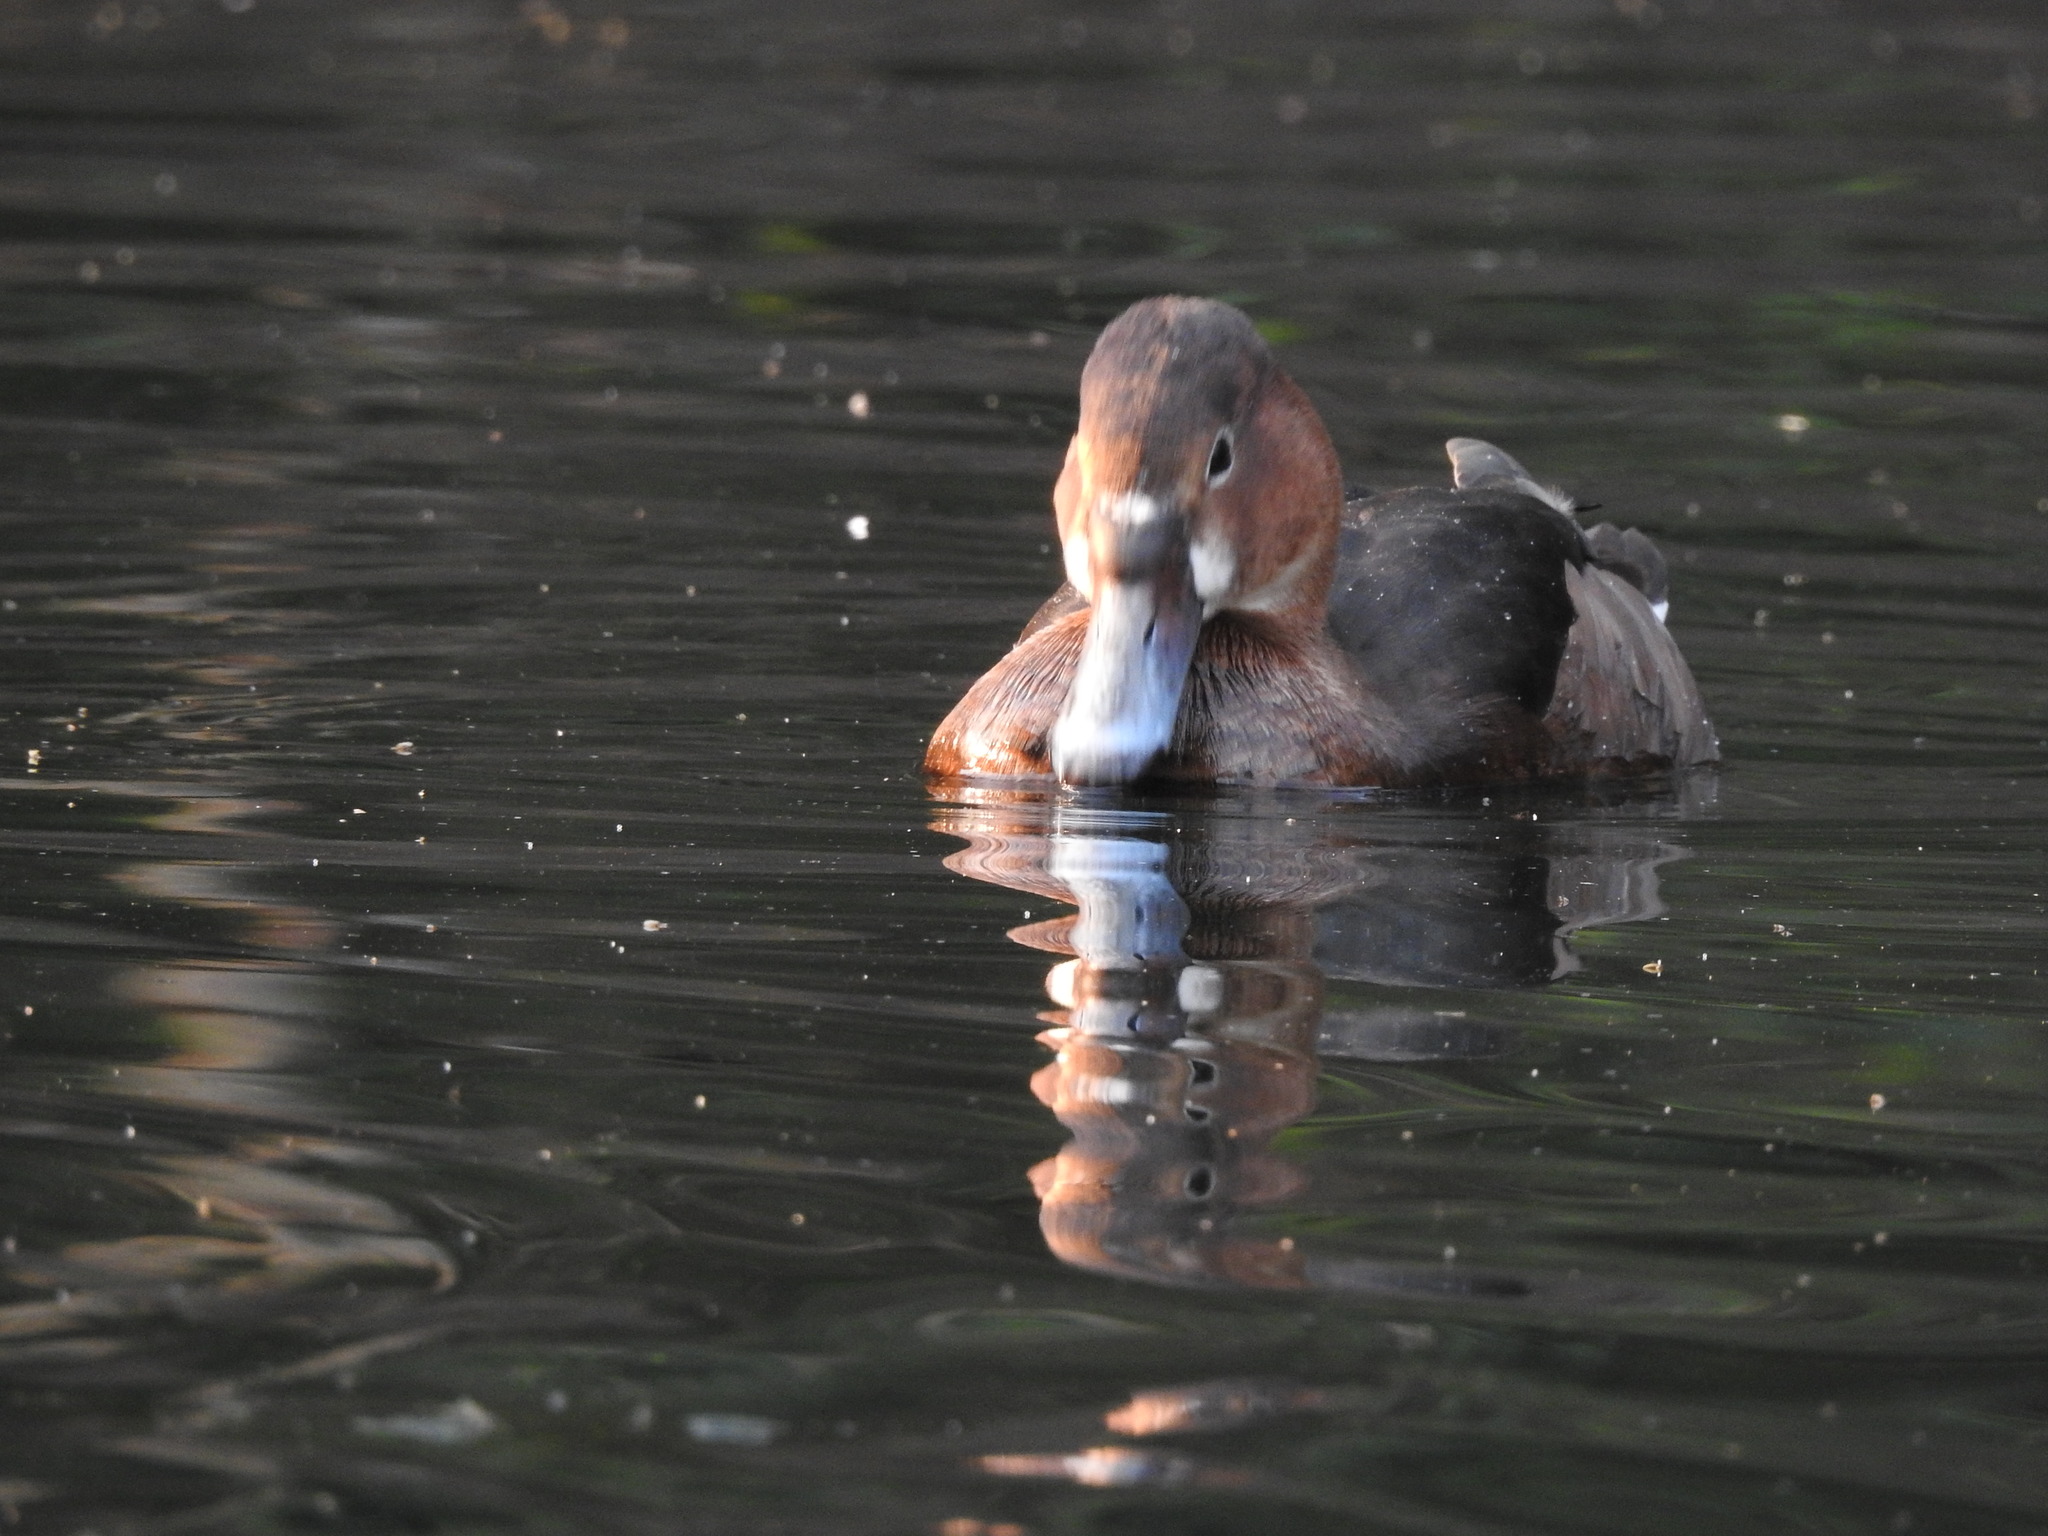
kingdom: Animalia
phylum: Chordata
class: Aves
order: Anseriformes
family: Anatidae
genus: Netta
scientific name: Netta peposaca
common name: Rosy-billed pochard
